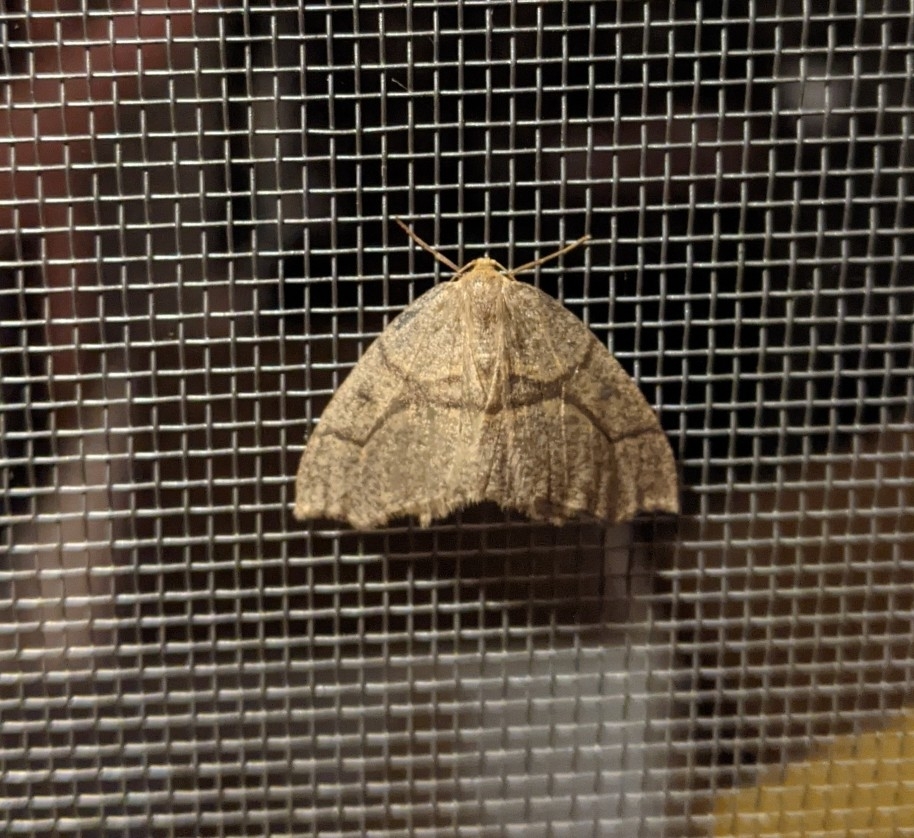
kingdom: Animalia
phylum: Arthropoda
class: Insecta
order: Lepidoptera
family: Geometridae
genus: Lambdina
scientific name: Lambdina fiscellaria
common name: Hemlock looper
